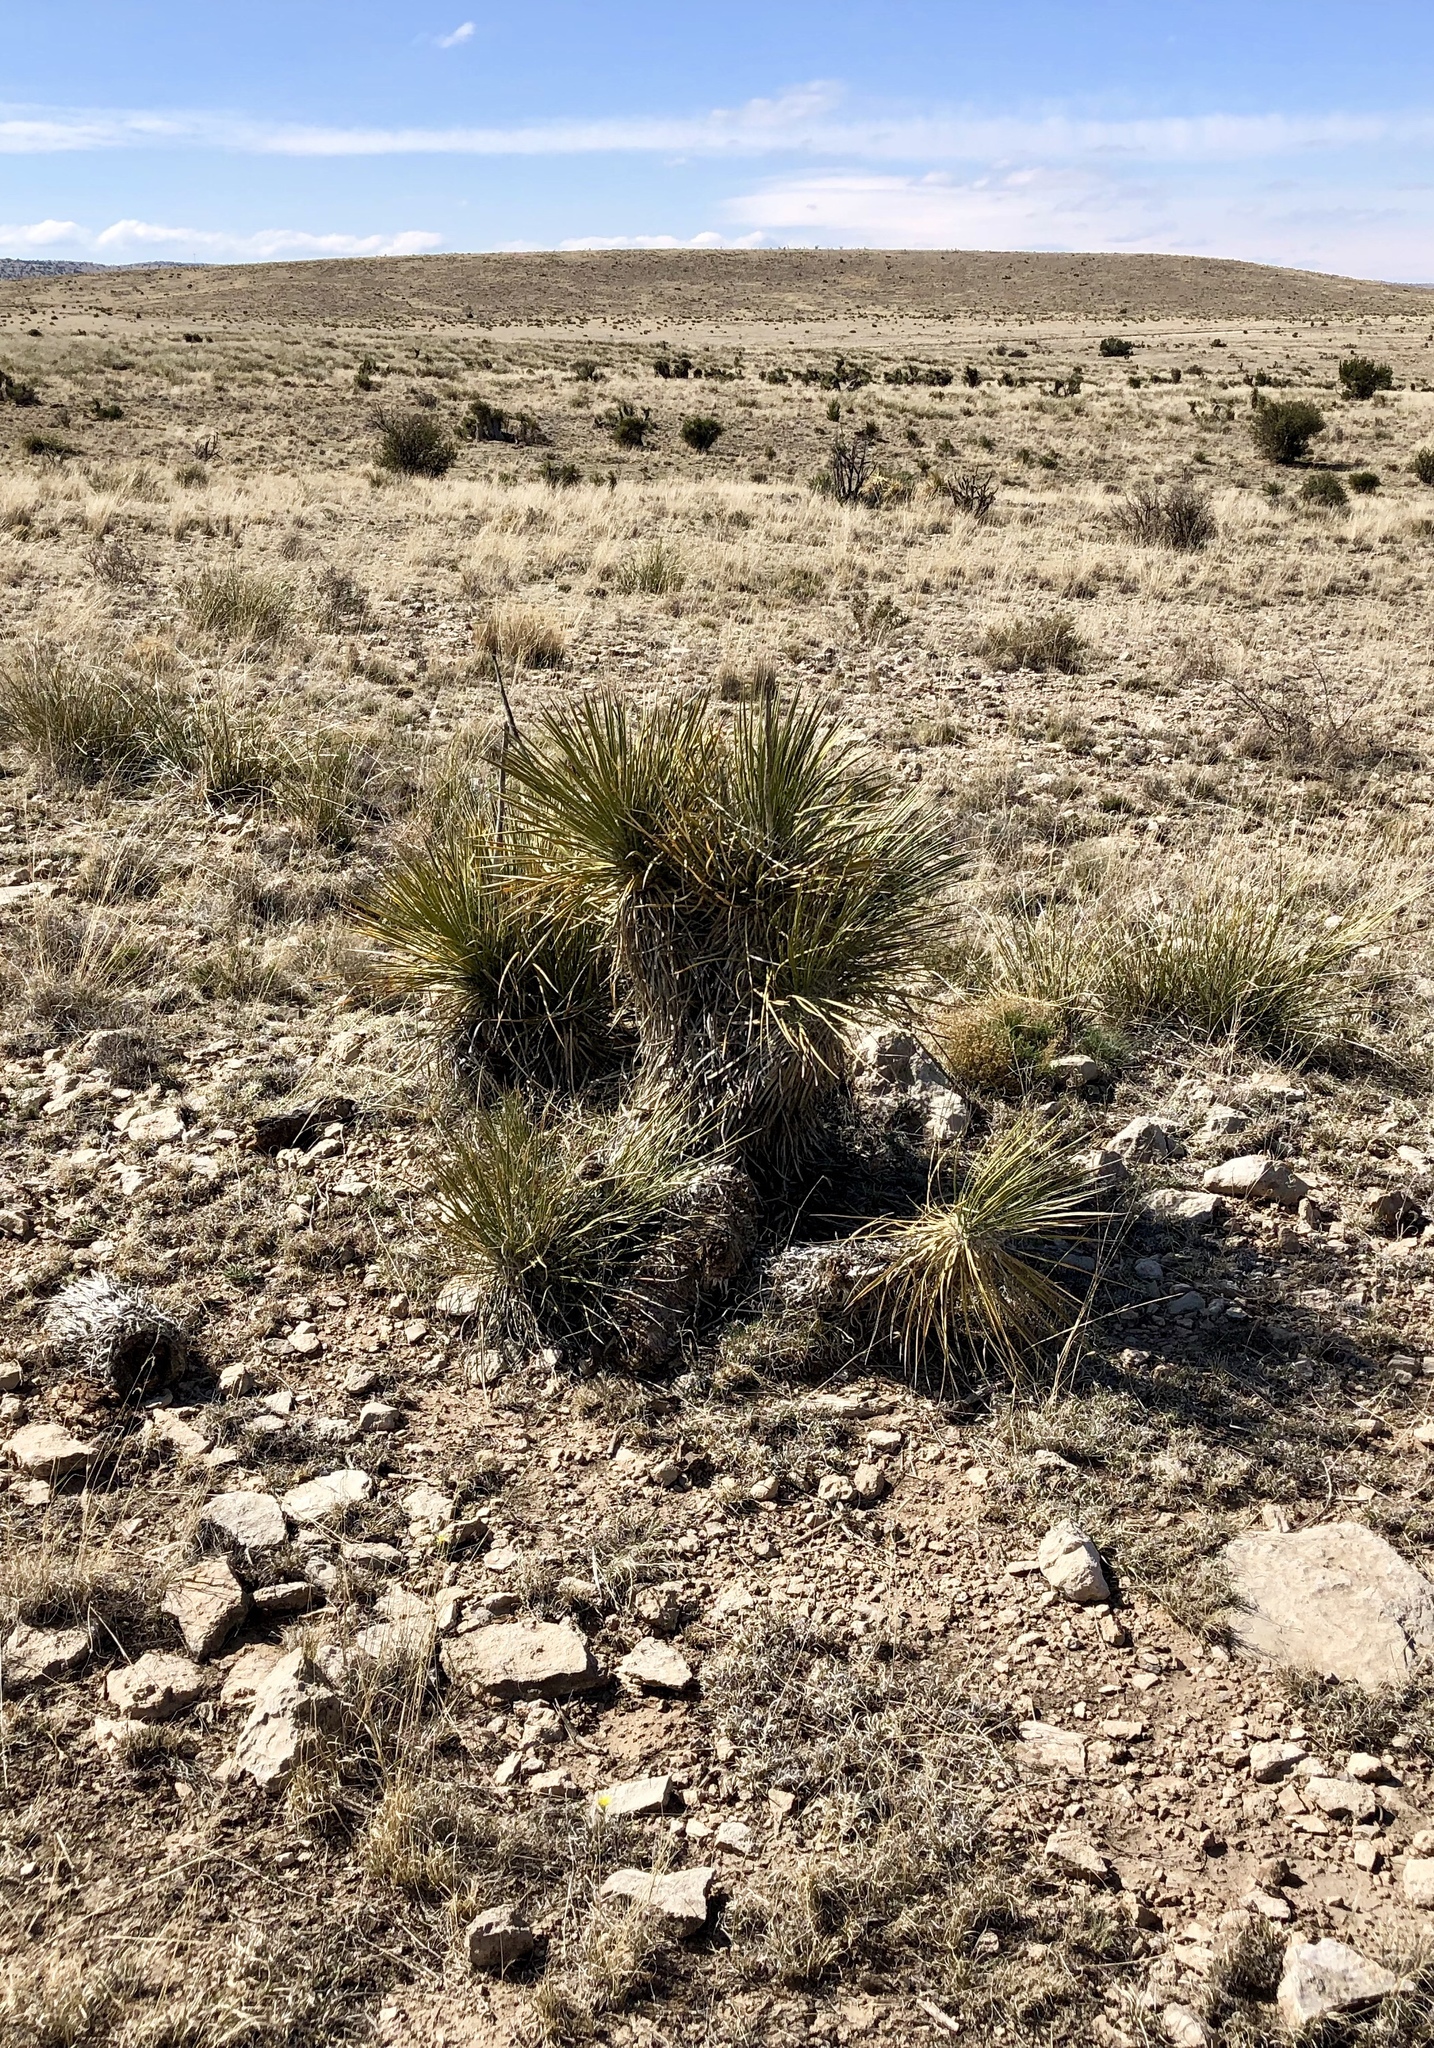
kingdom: Plantae
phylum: Tracheophyta
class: Liliopsida
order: Asparagales
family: Asparagaceae
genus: Yucca
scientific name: Yucca elata
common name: Palmella
